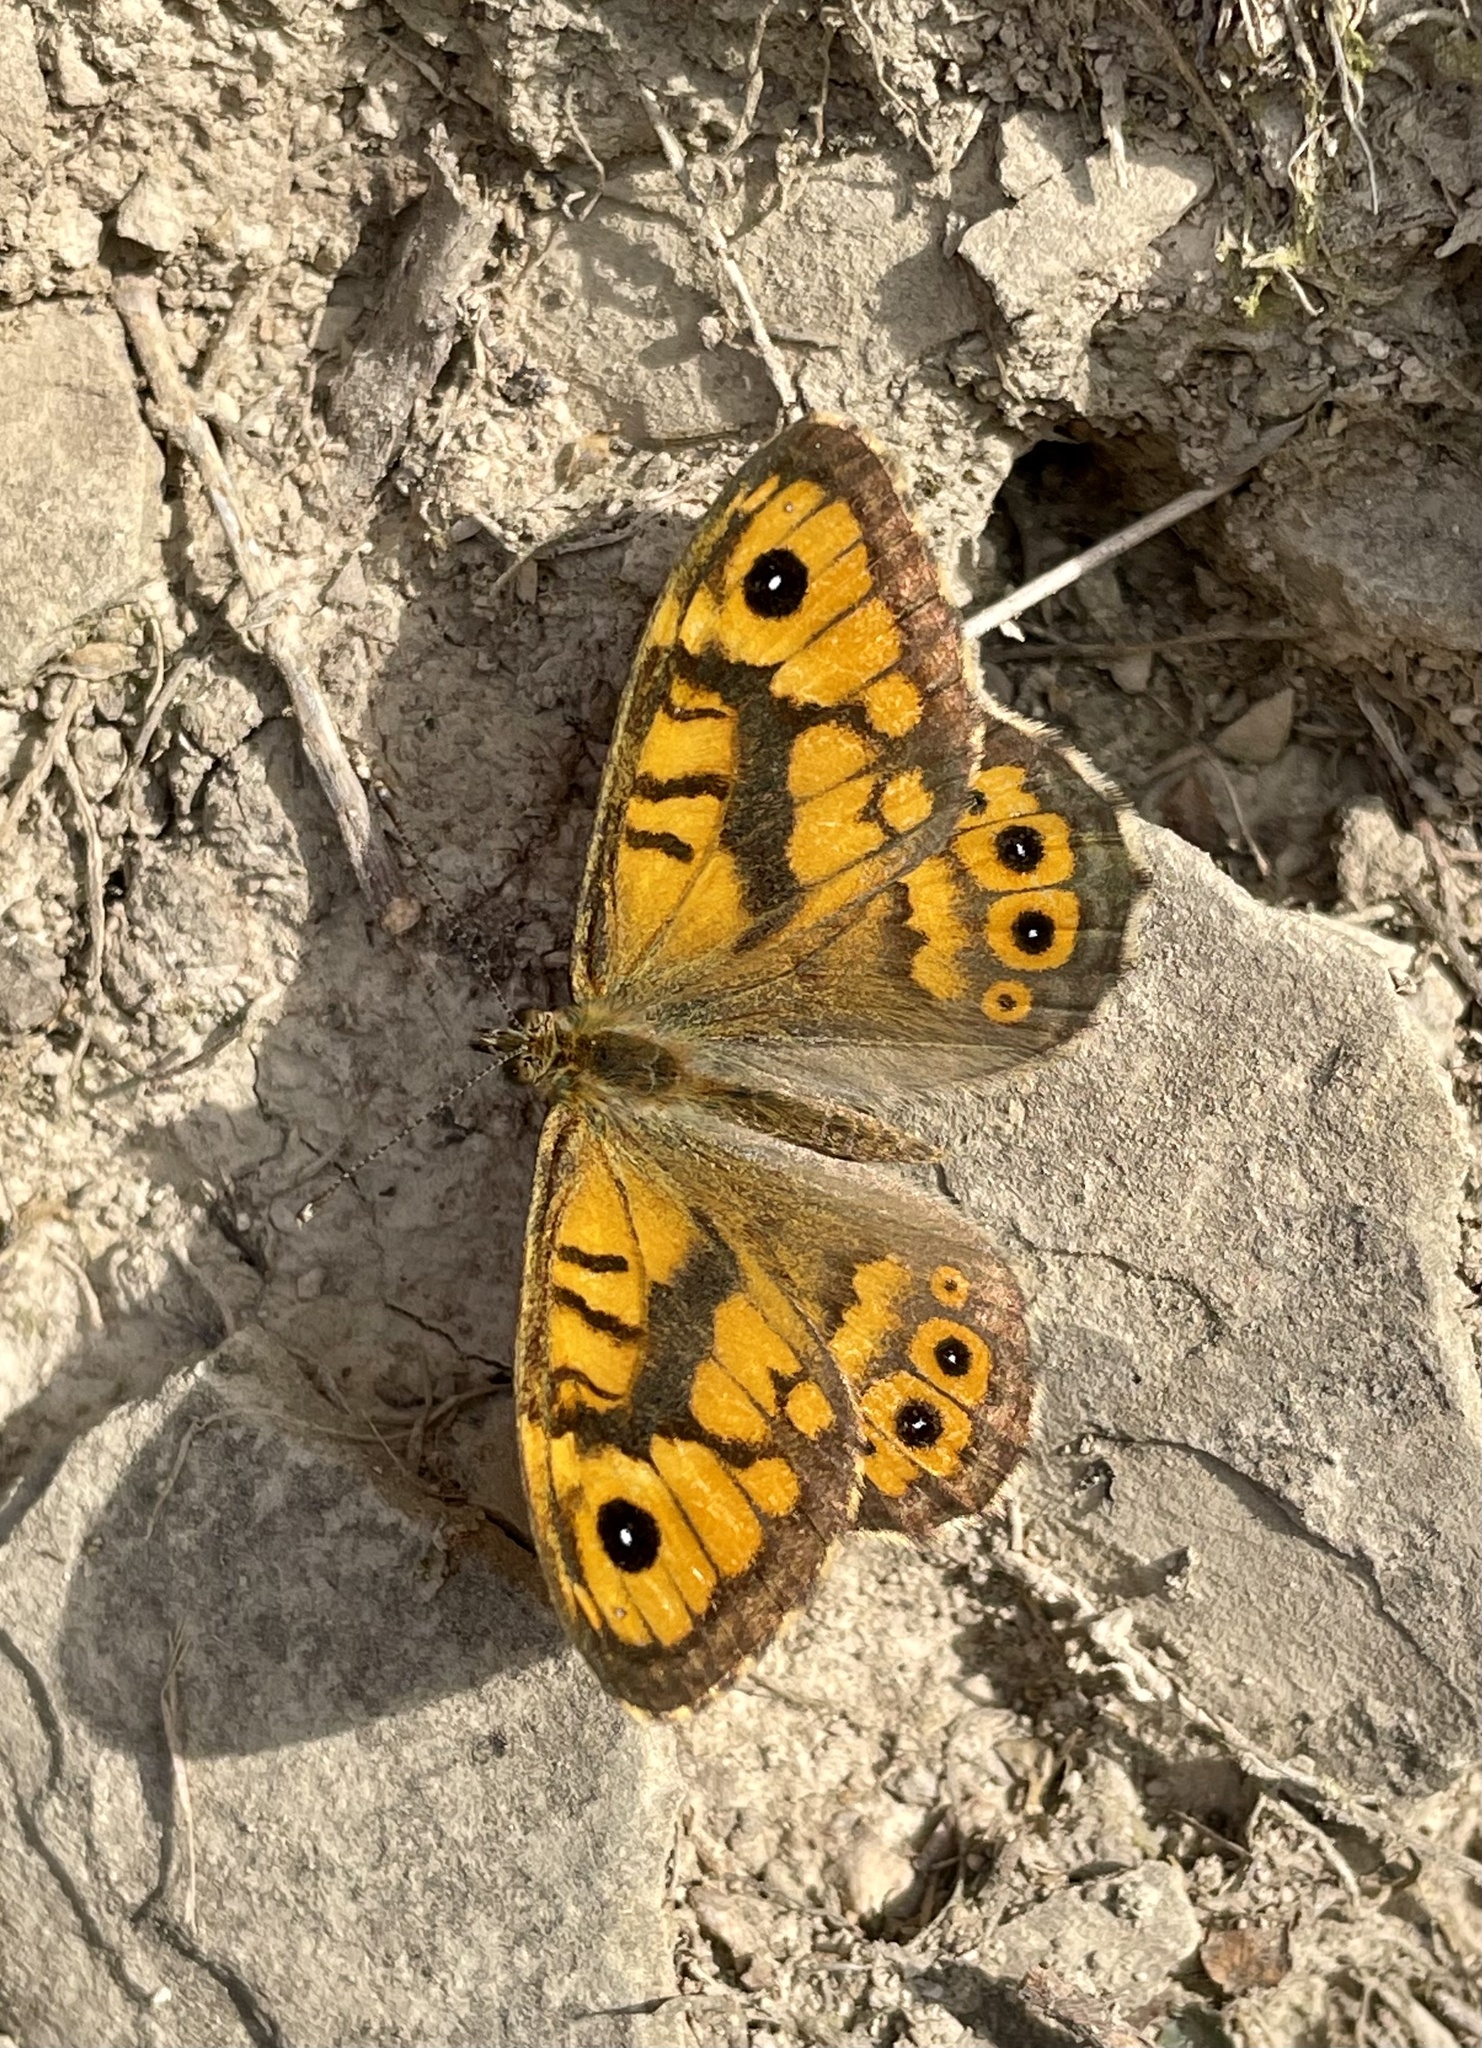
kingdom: Animalia
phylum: Arthropoda
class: Insecta
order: Lepidoptera
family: Nymphalidae
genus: Pararge
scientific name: Pararge Lasiommata megera
